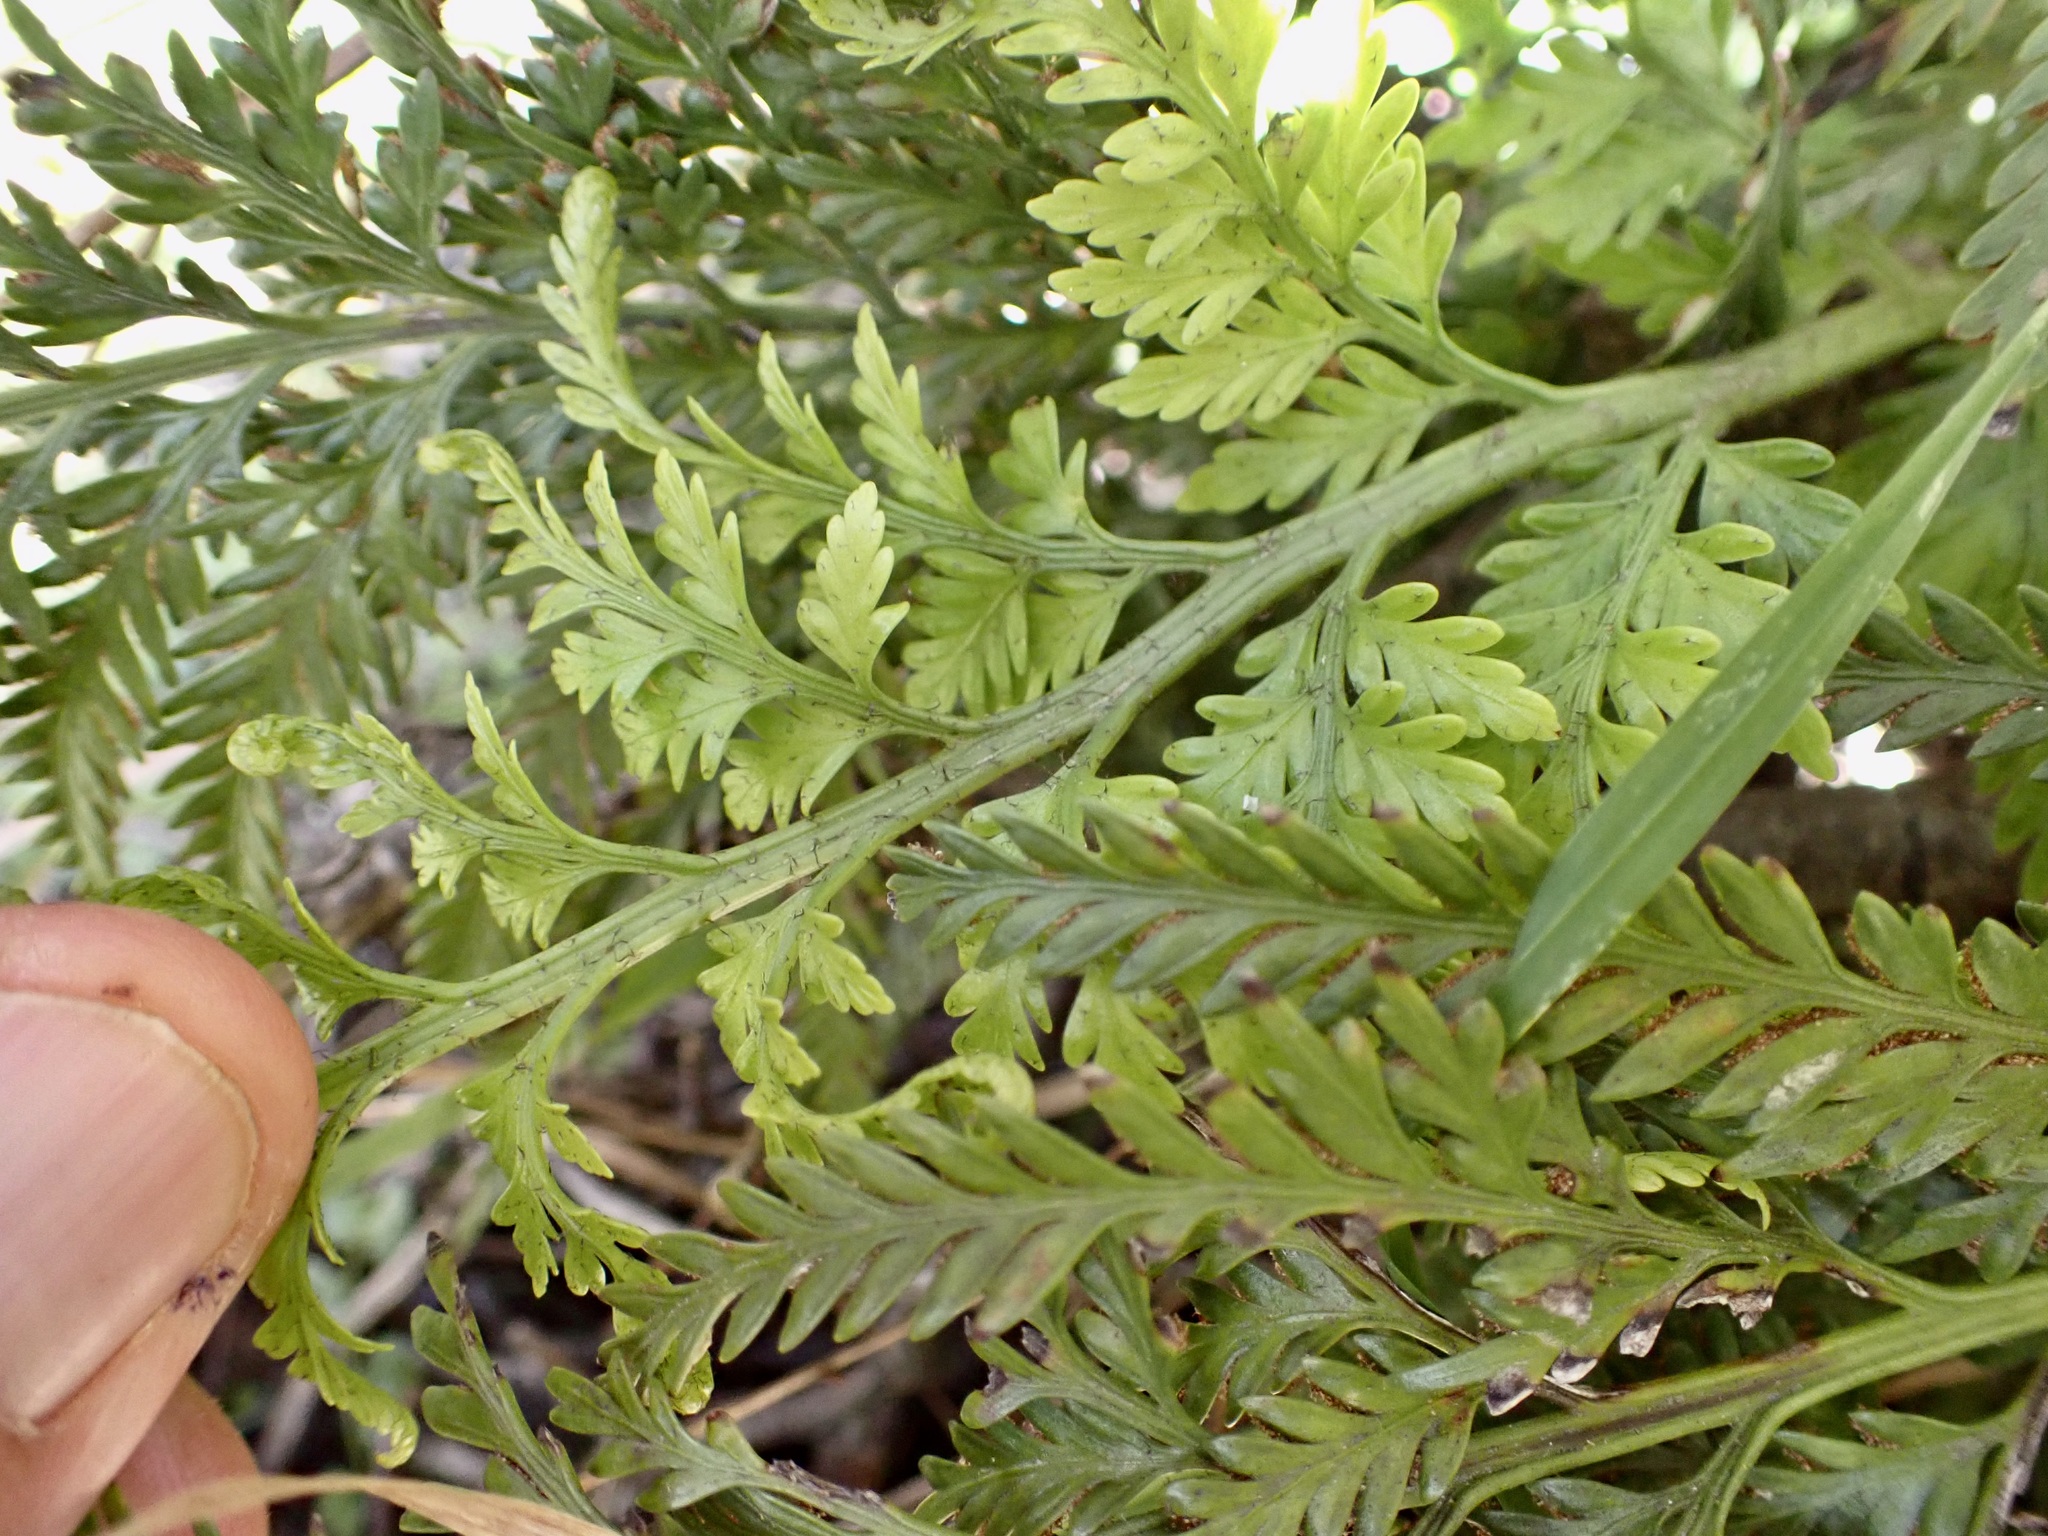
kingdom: Plantae
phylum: Tracheophyta
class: Polypodiopsida
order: Polypodiales
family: Aspleniaceae
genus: Asplenium
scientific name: Asplenium appendiculatum
